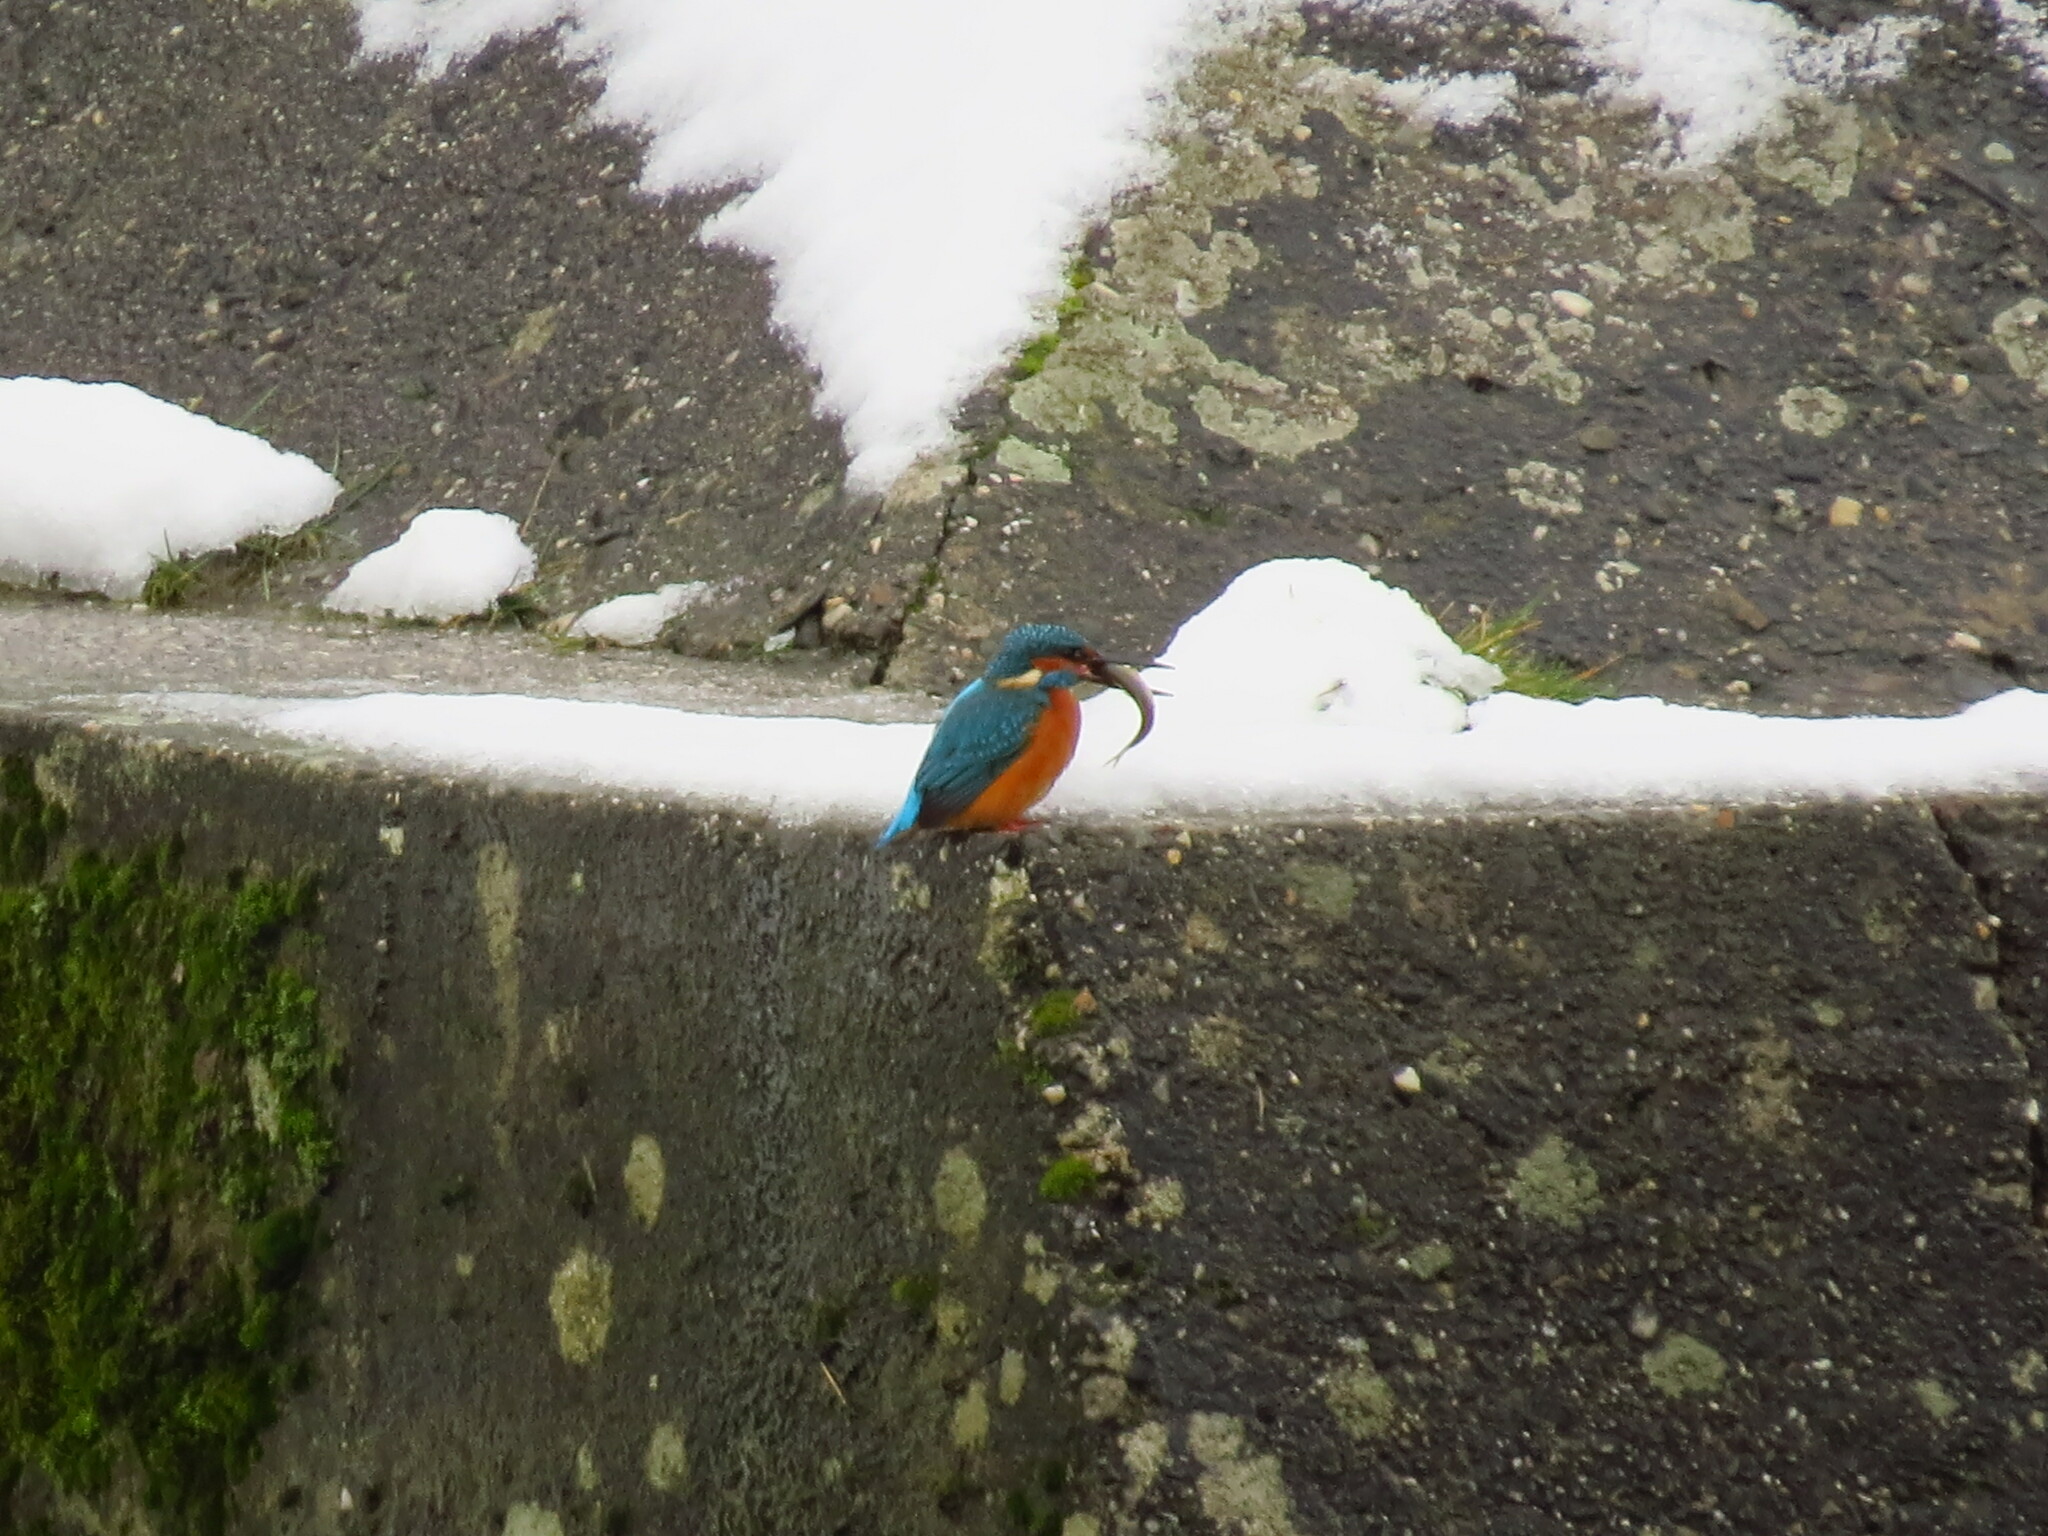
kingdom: Animalia
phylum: Chordata
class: Aves
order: Coraciiformes
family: Alcedinidae
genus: Alcedo
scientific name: Alcedo atthis
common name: Common kingfisher
